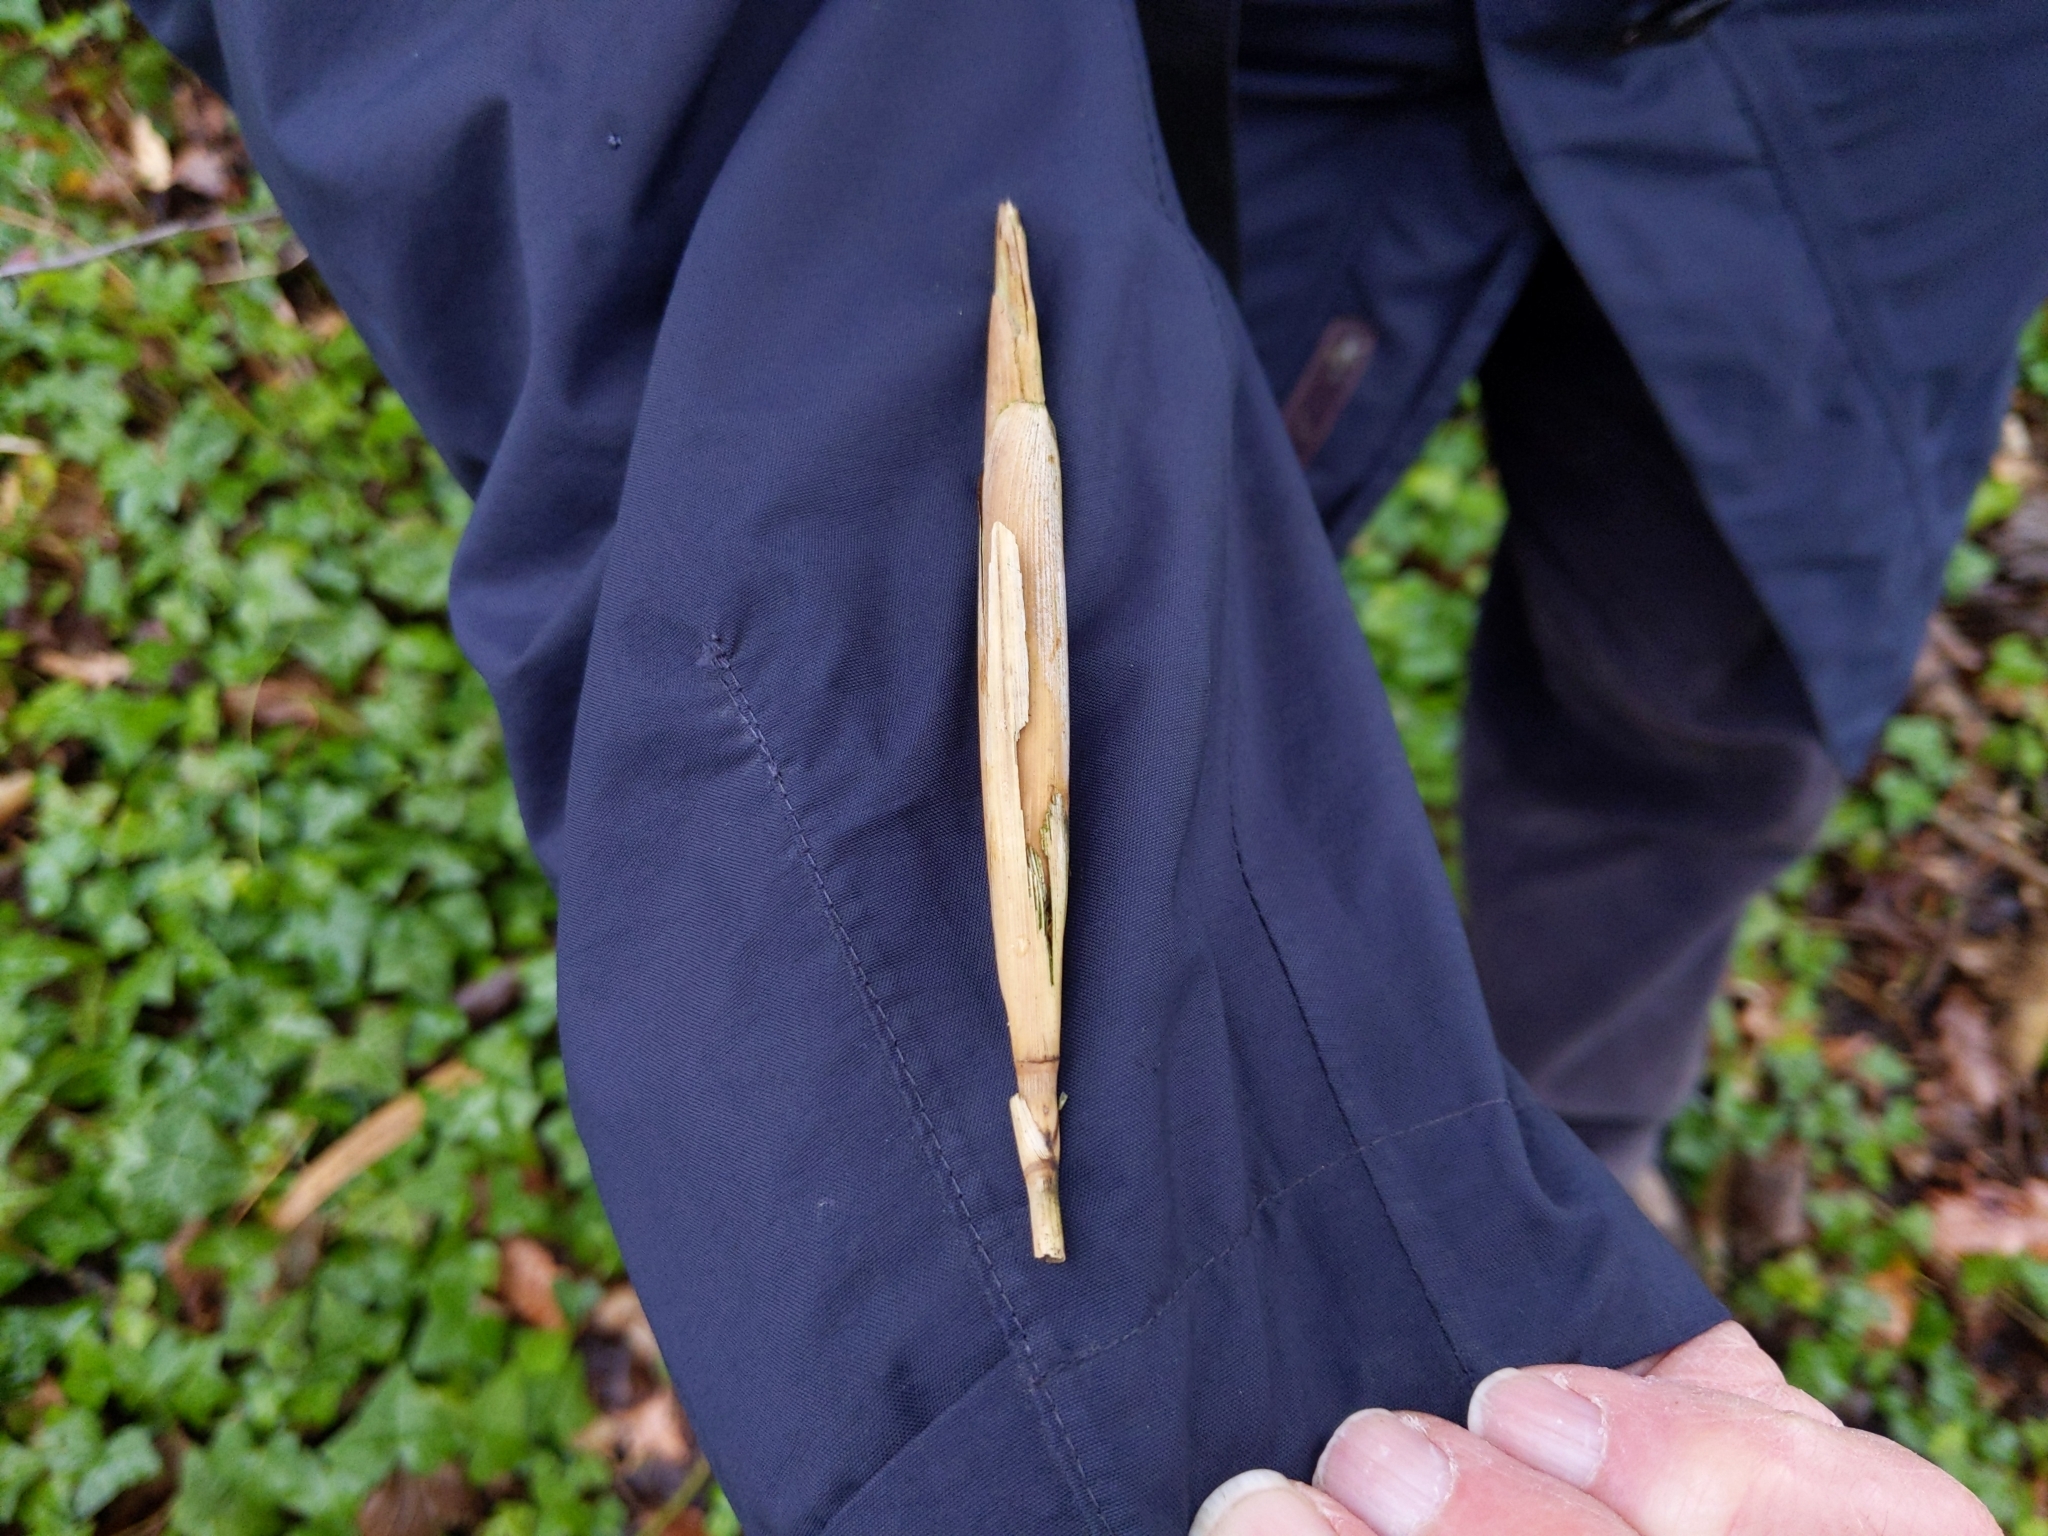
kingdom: Animalia
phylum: Arthropoda
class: Insecta
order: Diptera
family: Chloropidae
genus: Lipara
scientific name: Lipara lucens
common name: Frit fly
